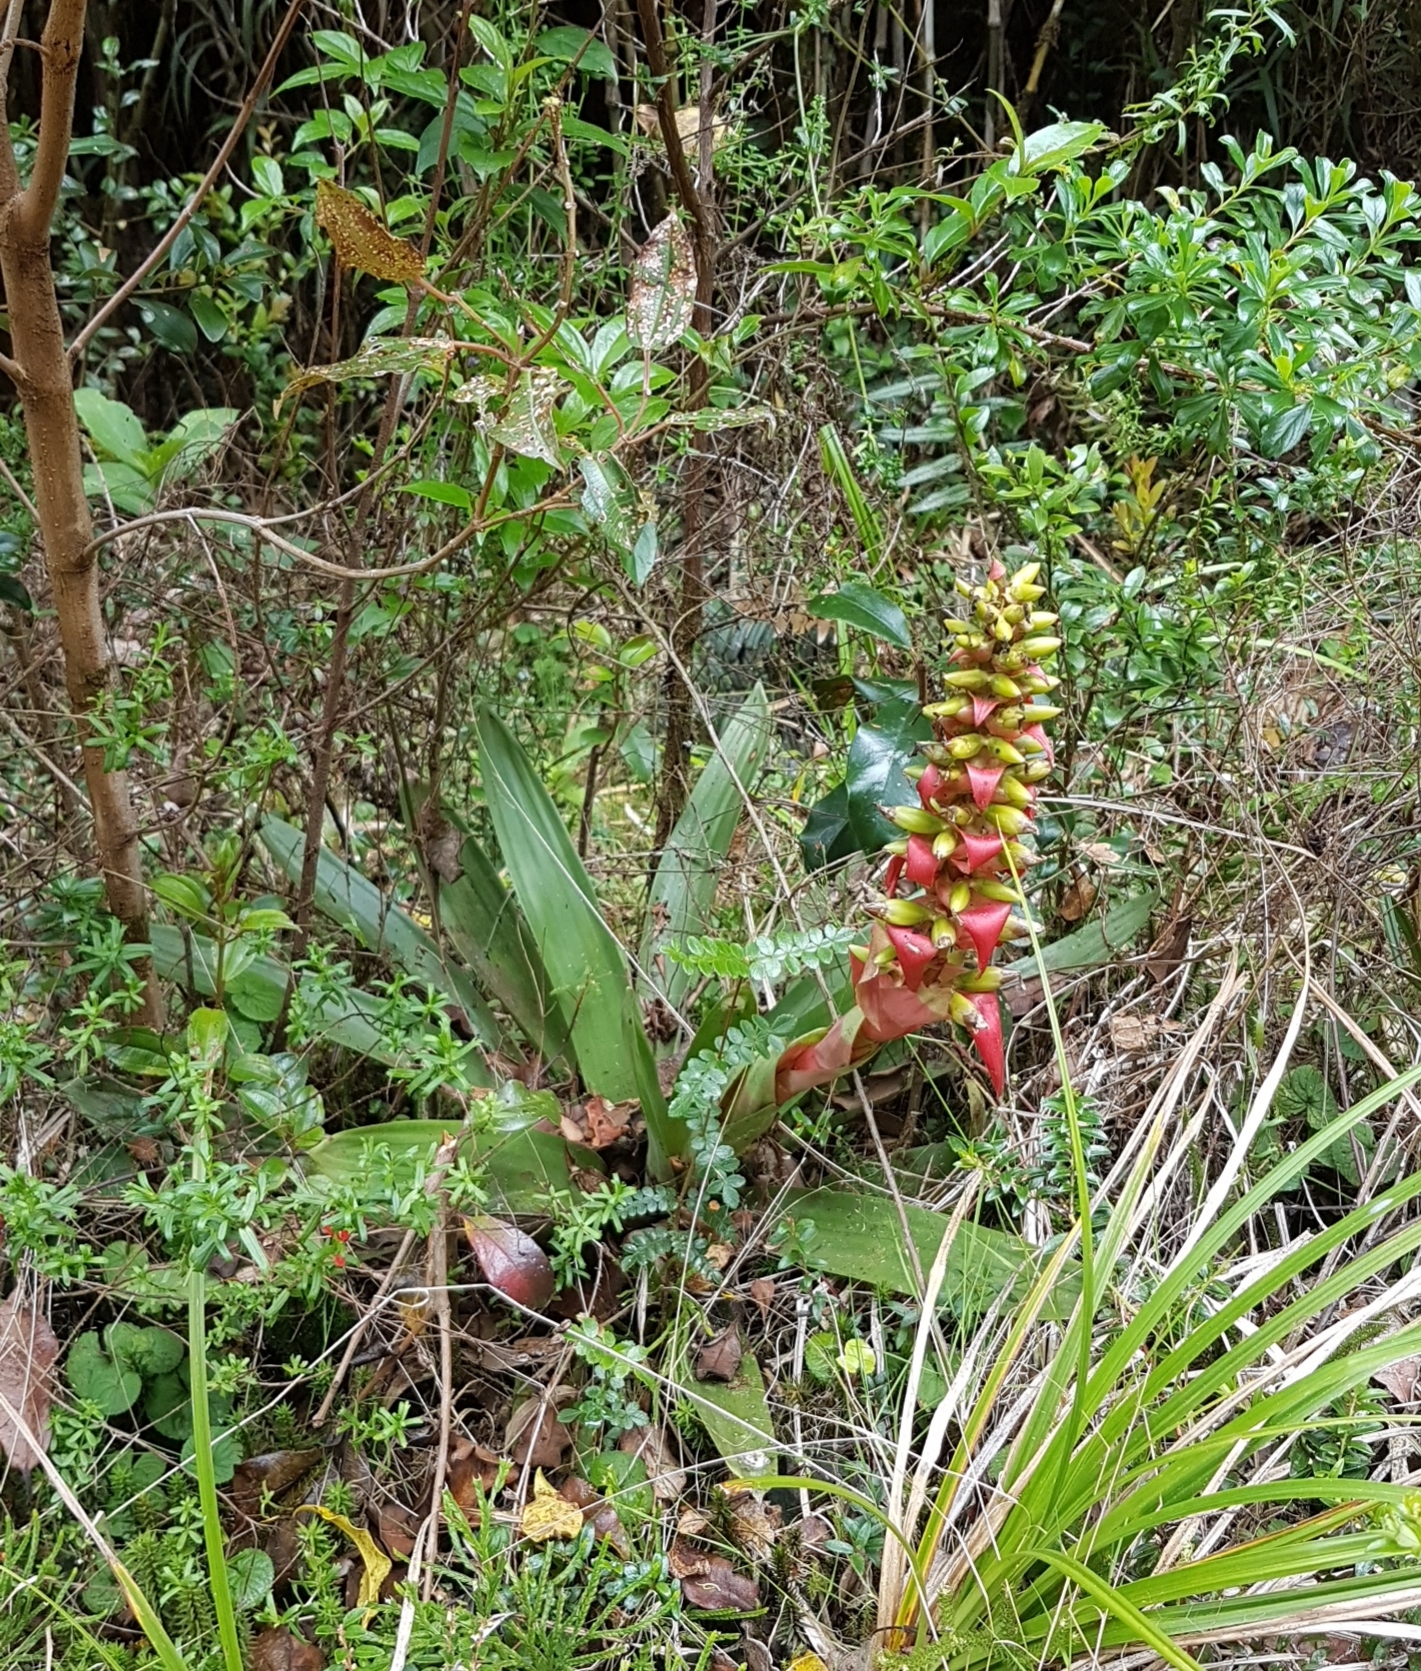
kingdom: Plantae
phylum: Tracheophyta
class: Liliopsida
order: Poales
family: Bromeliaceae
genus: Werauhia
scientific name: Werauhia ororiensis
